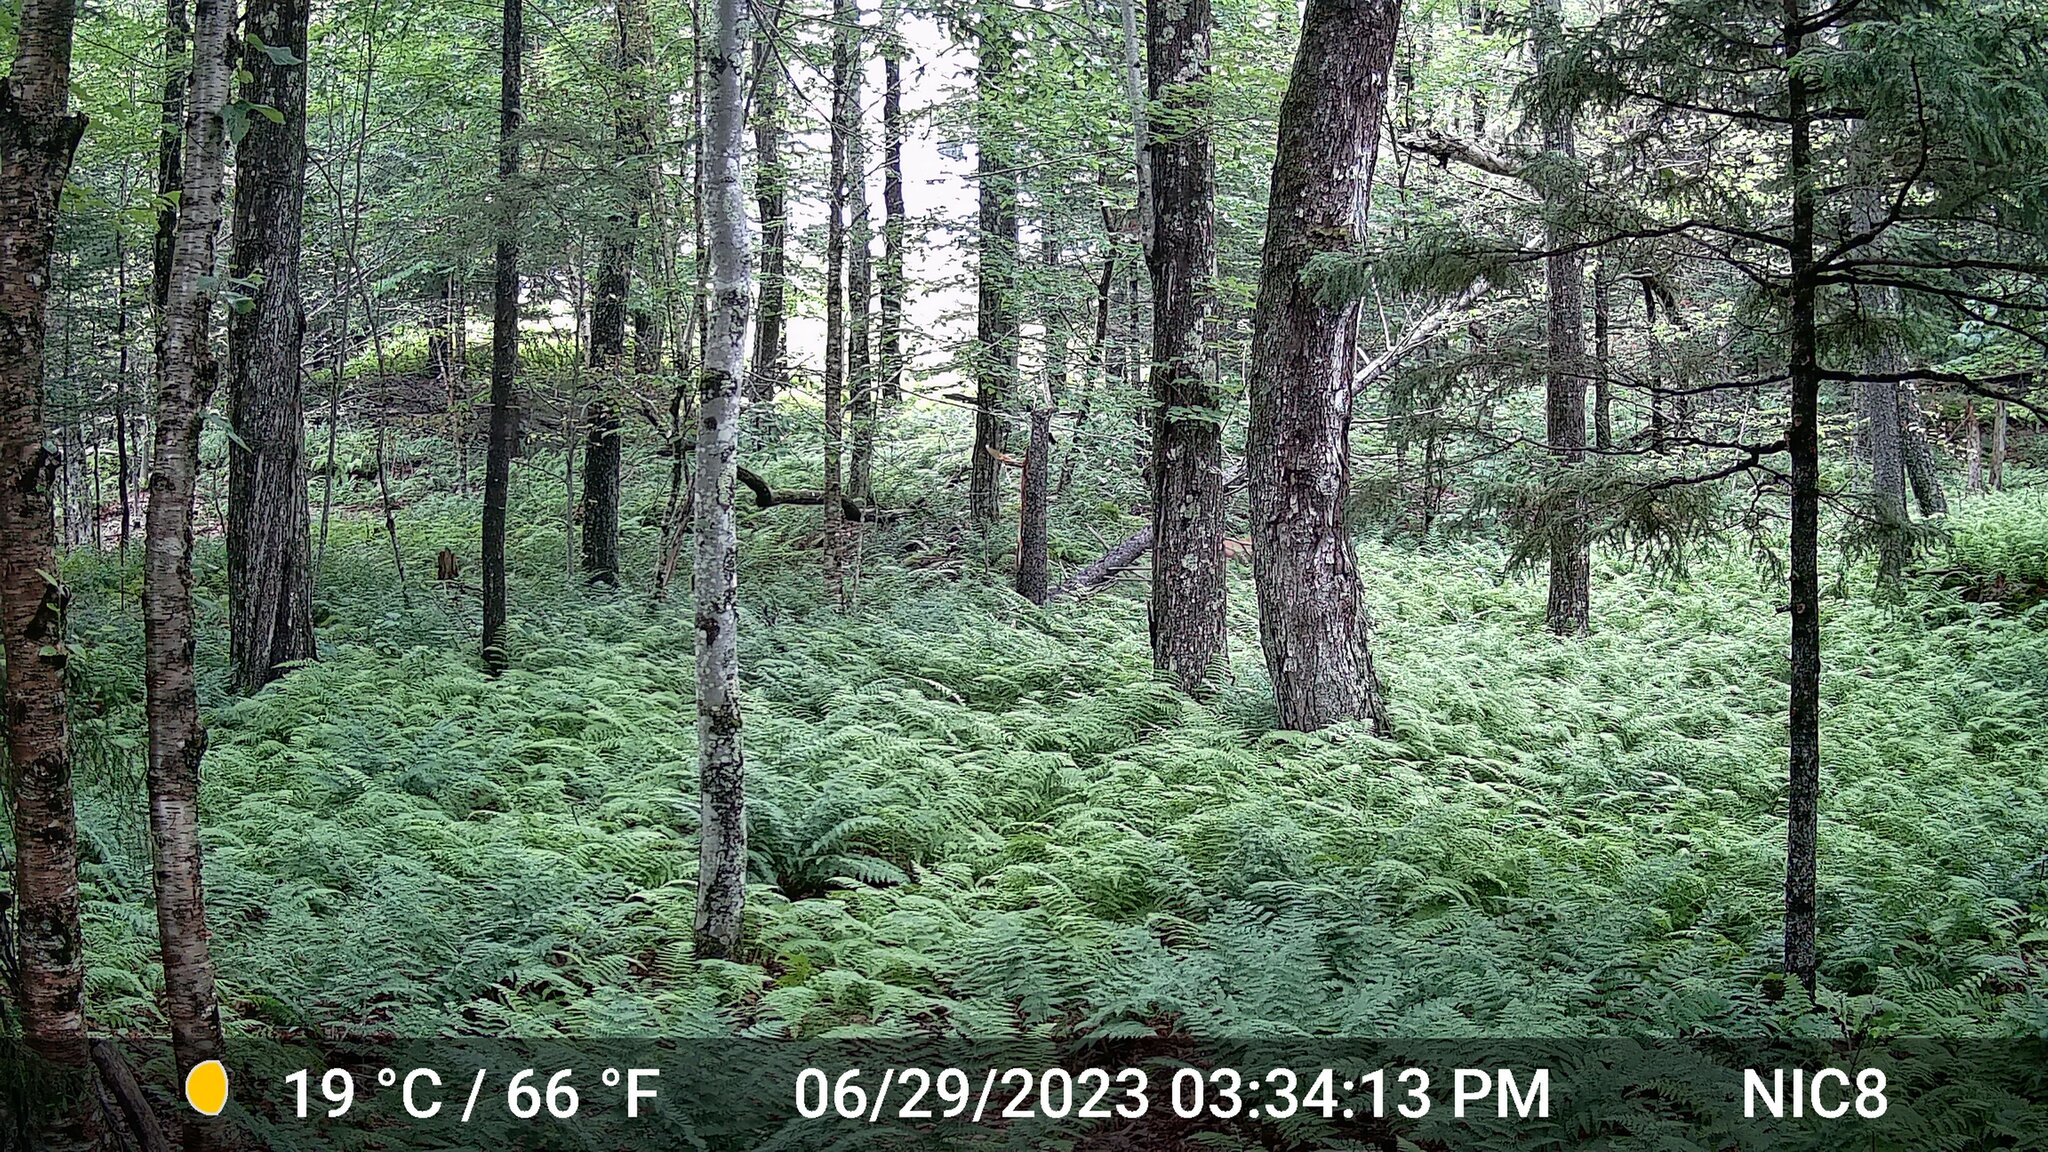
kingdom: Animalia
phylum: Chordata
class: Mammalia
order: Artiodactyla
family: Cervidae
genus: Odocoileus
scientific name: Odocoileus virginianus
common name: White-tailed deer
